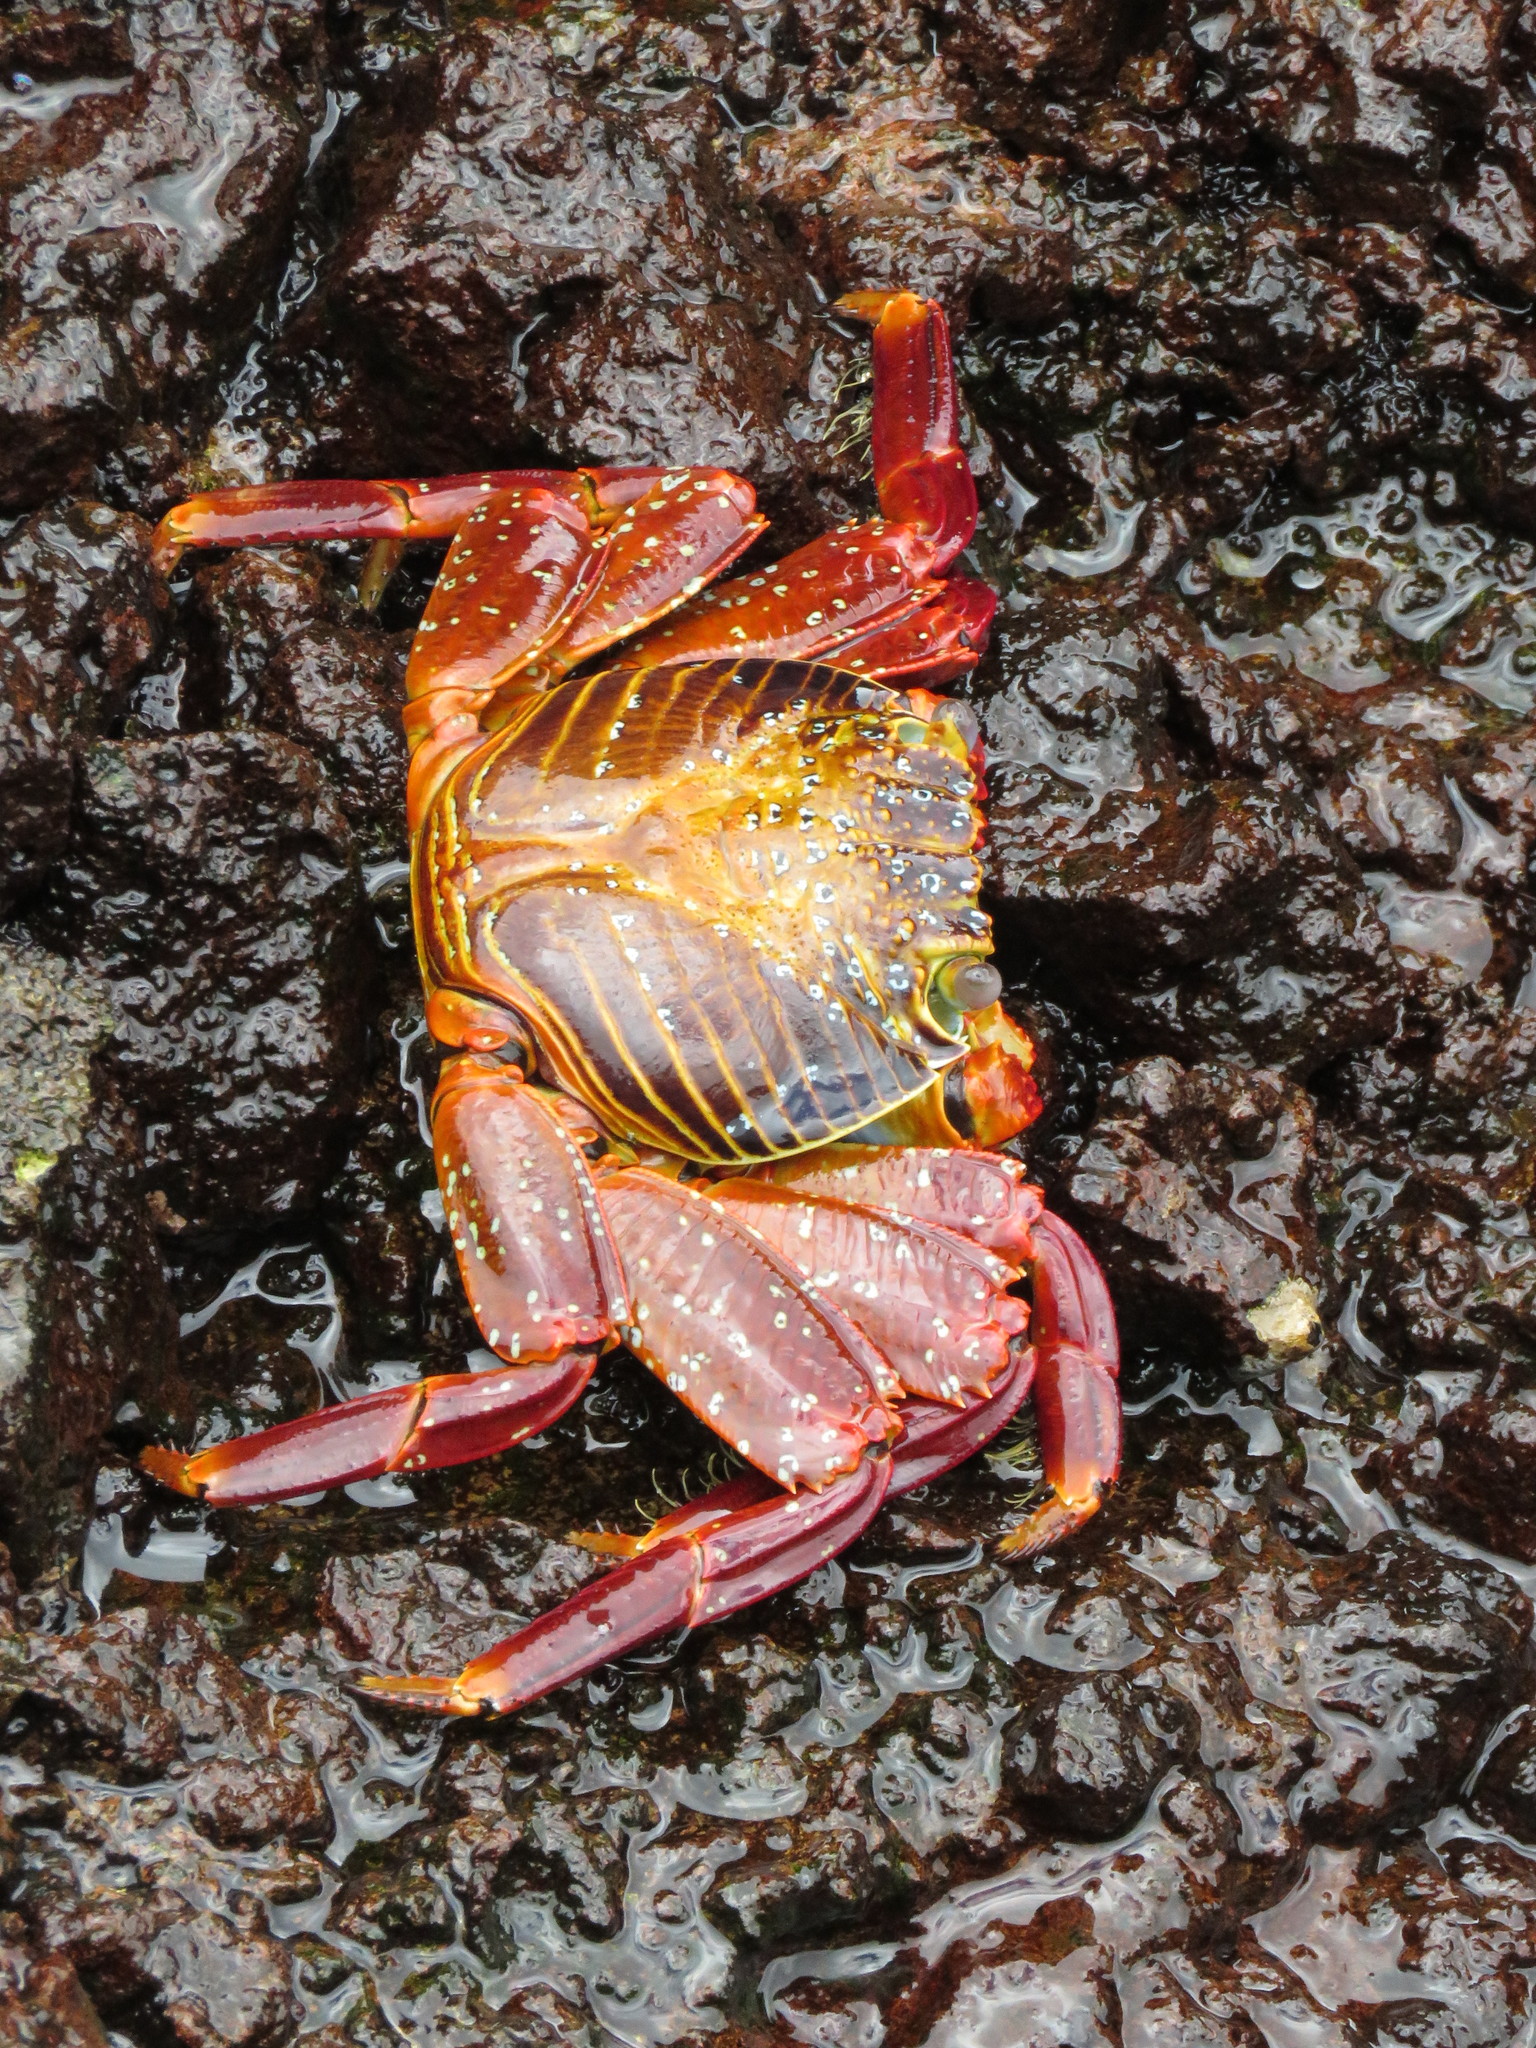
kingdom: Animalia
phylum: Arthropoda
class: Malacostraca
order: Decapoda
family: Grapsidae
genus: Grapsus
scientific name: Grapsus grapsus
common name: Sally lightfoot
